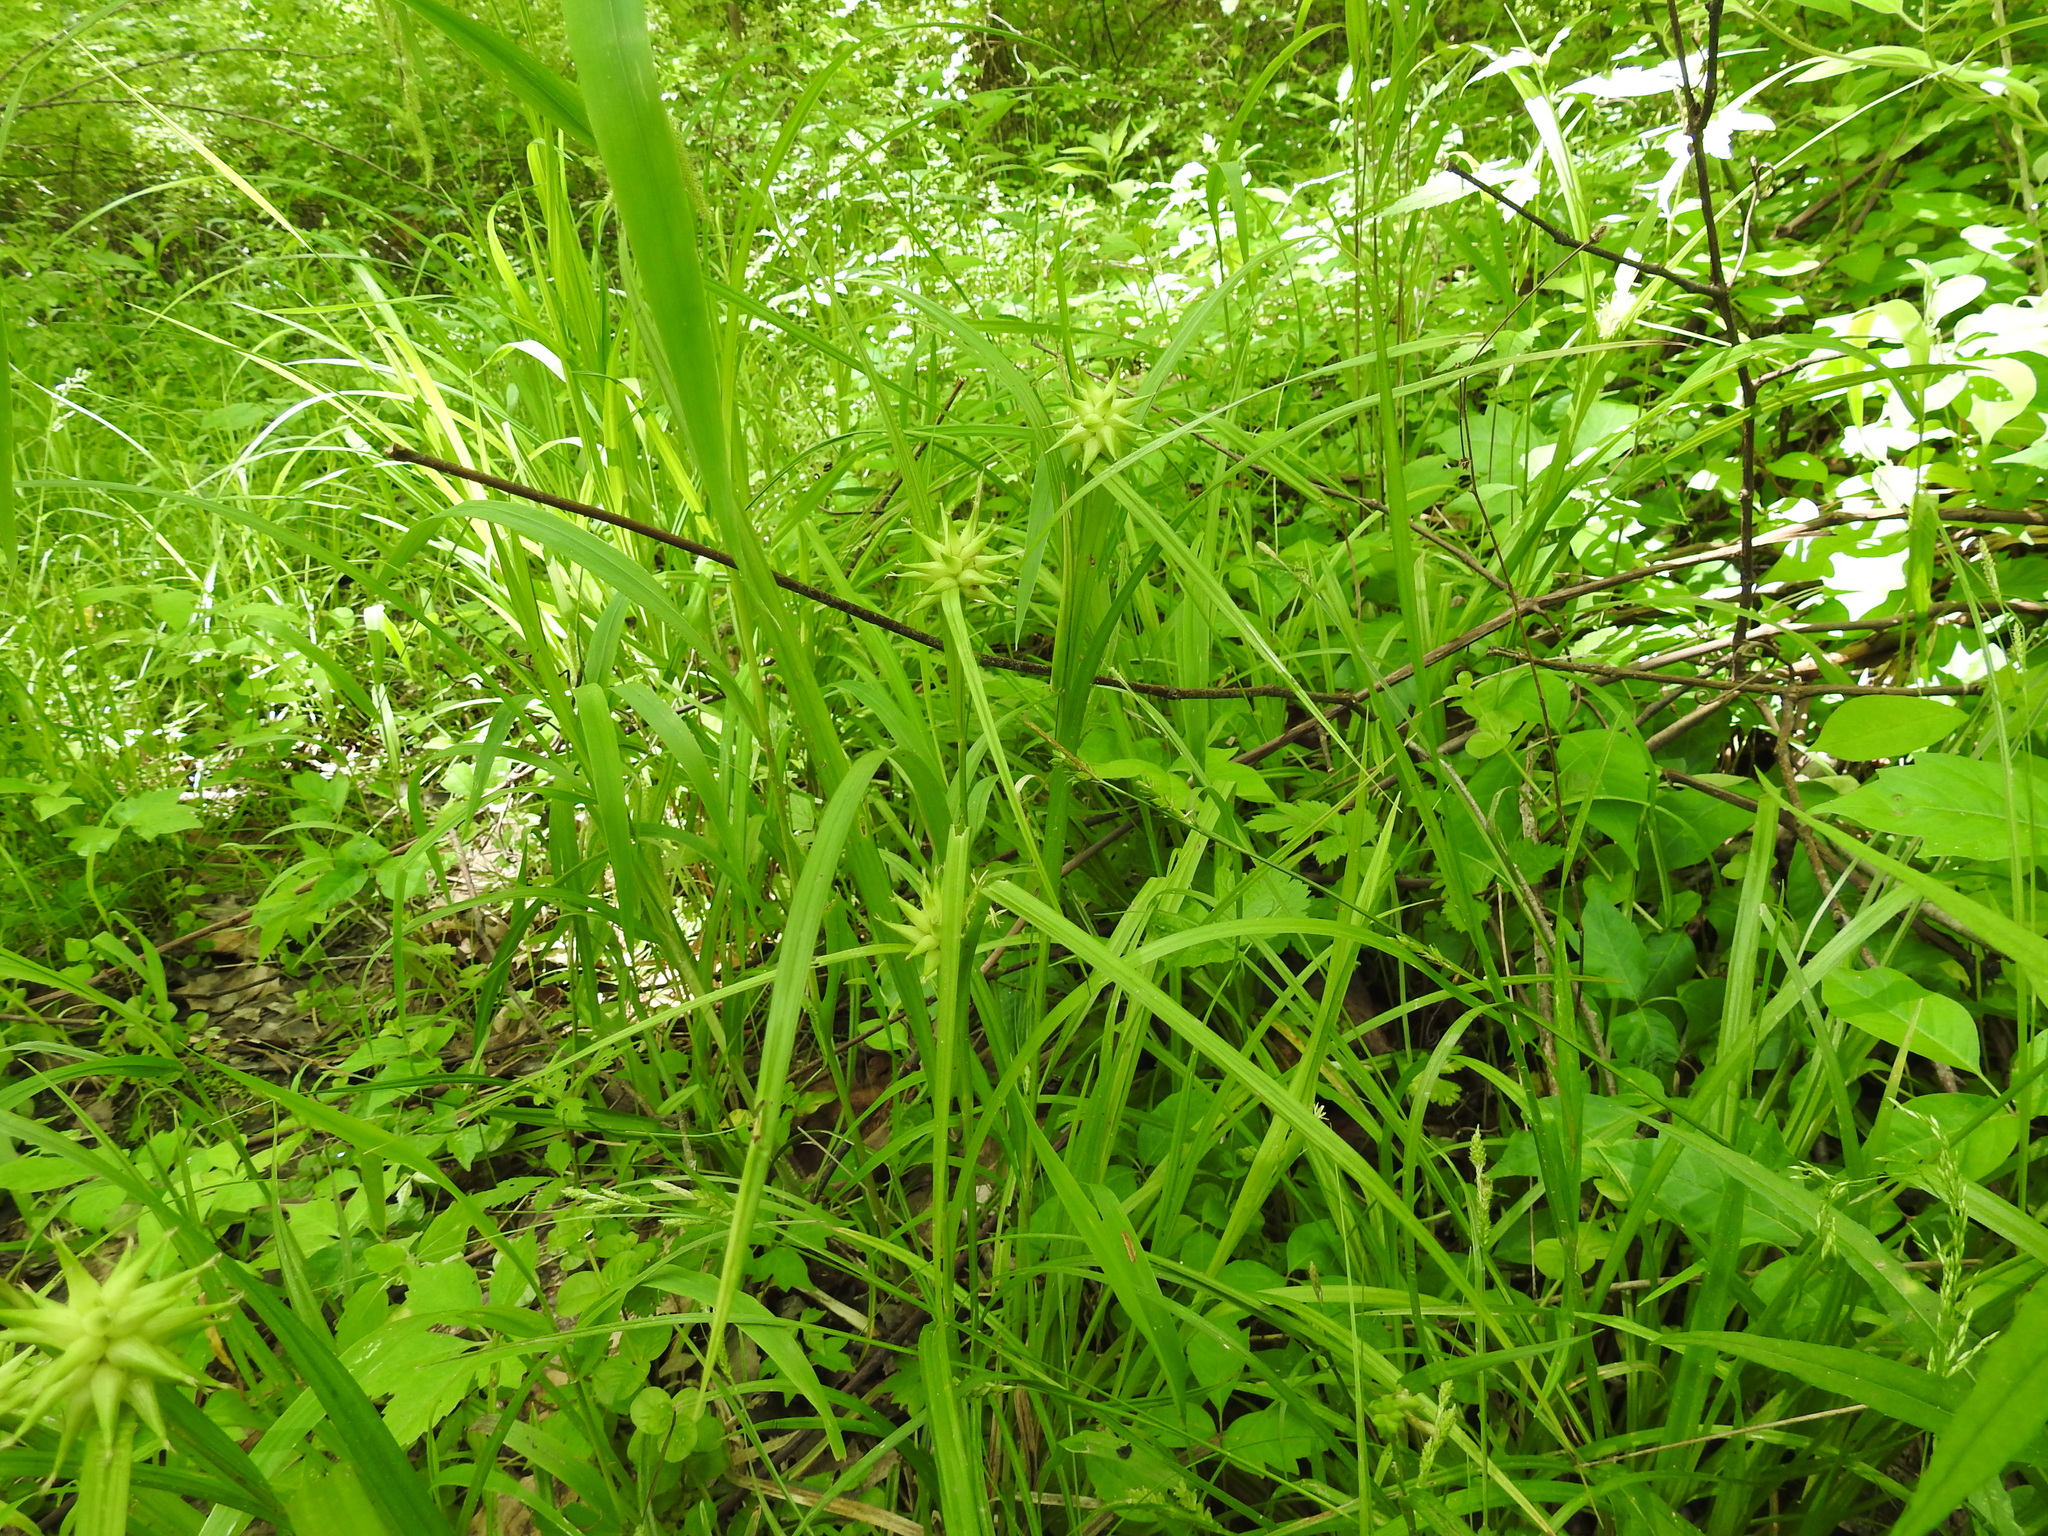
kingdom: Plantae
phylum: Tracheophyta
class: Liliopsida
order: Poales
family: Cyperaceae
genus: Carex
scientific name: Carex grayi
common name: Asa gray's sedge
